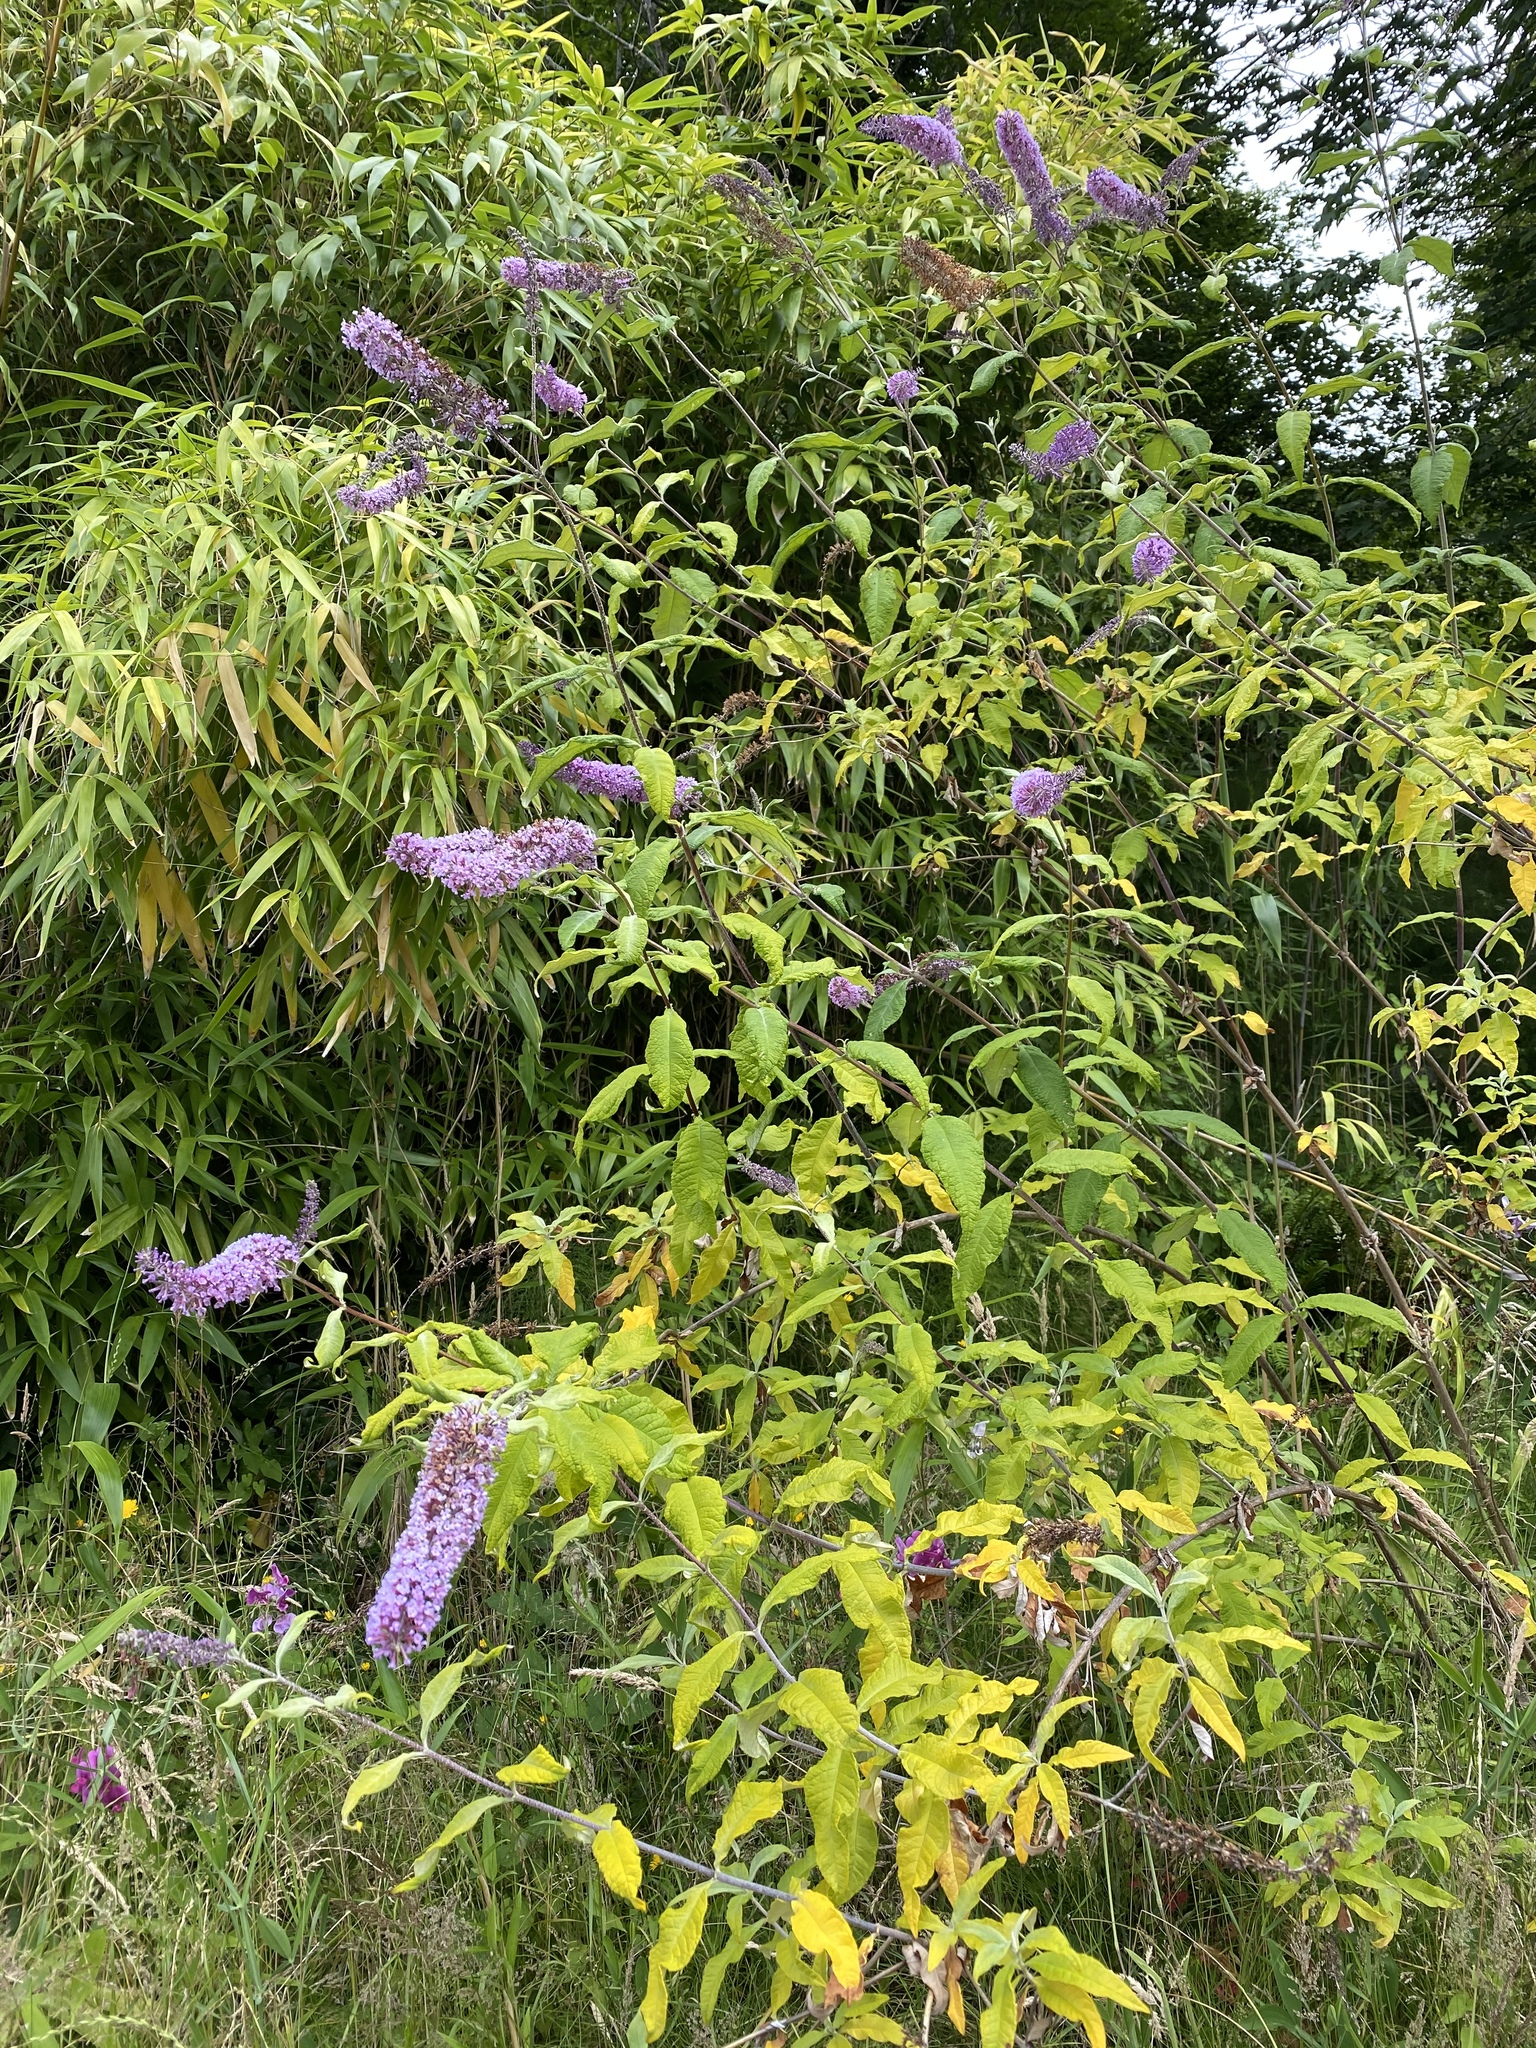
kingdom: Plantae
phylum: Tracheophyta
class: Magnoliopsida
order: Lamiales
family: Scrophulariaceae
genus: Buddleja
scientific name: Buddleja davidii
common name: Butterfly-bush
